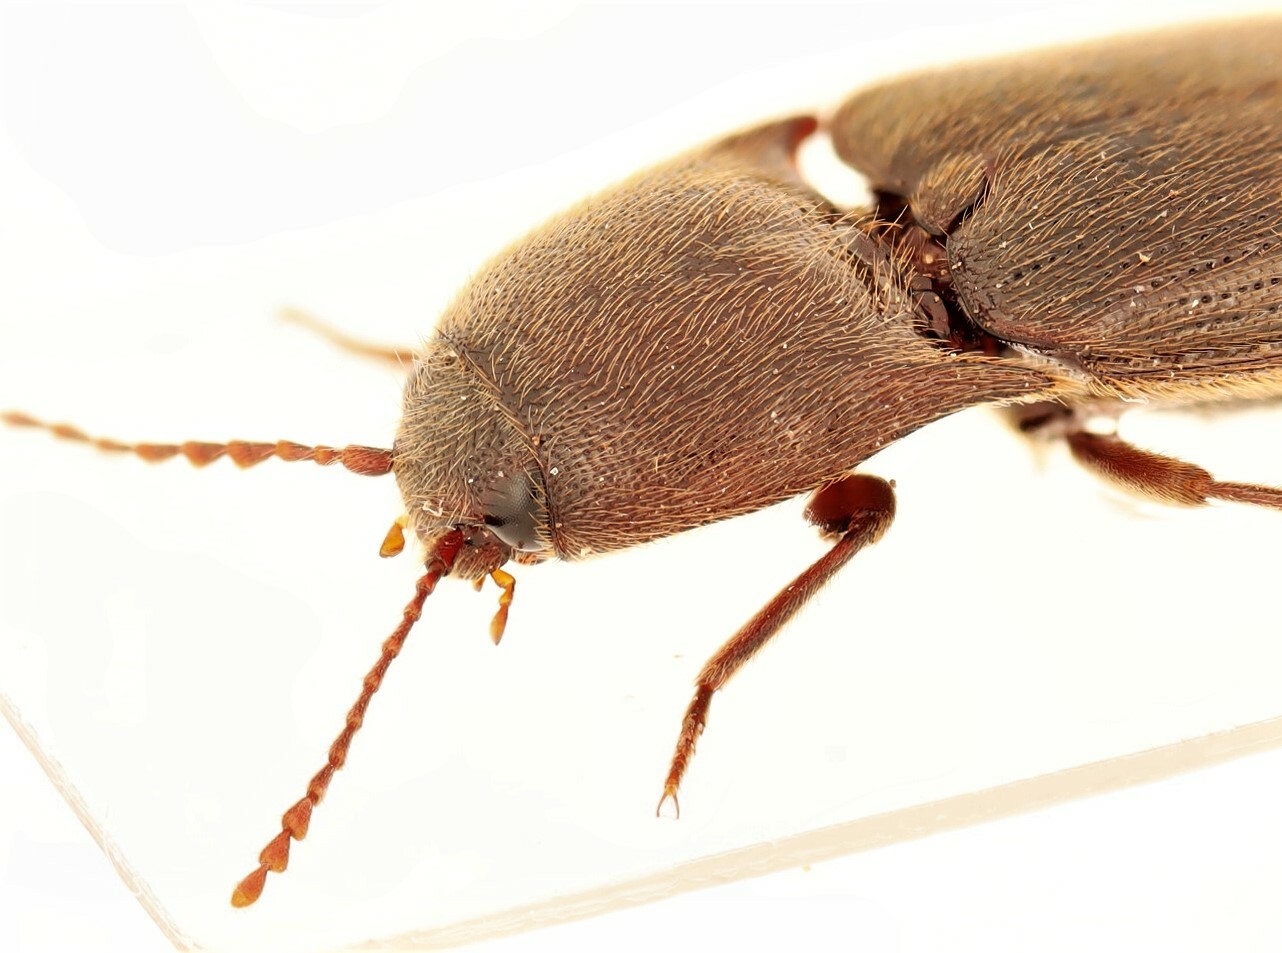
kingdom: Animalia
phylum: Arthropoda
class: Insecta
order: Coleoptera
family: Elateridae
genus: Ampedus
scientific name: Ampedus melanotoides
